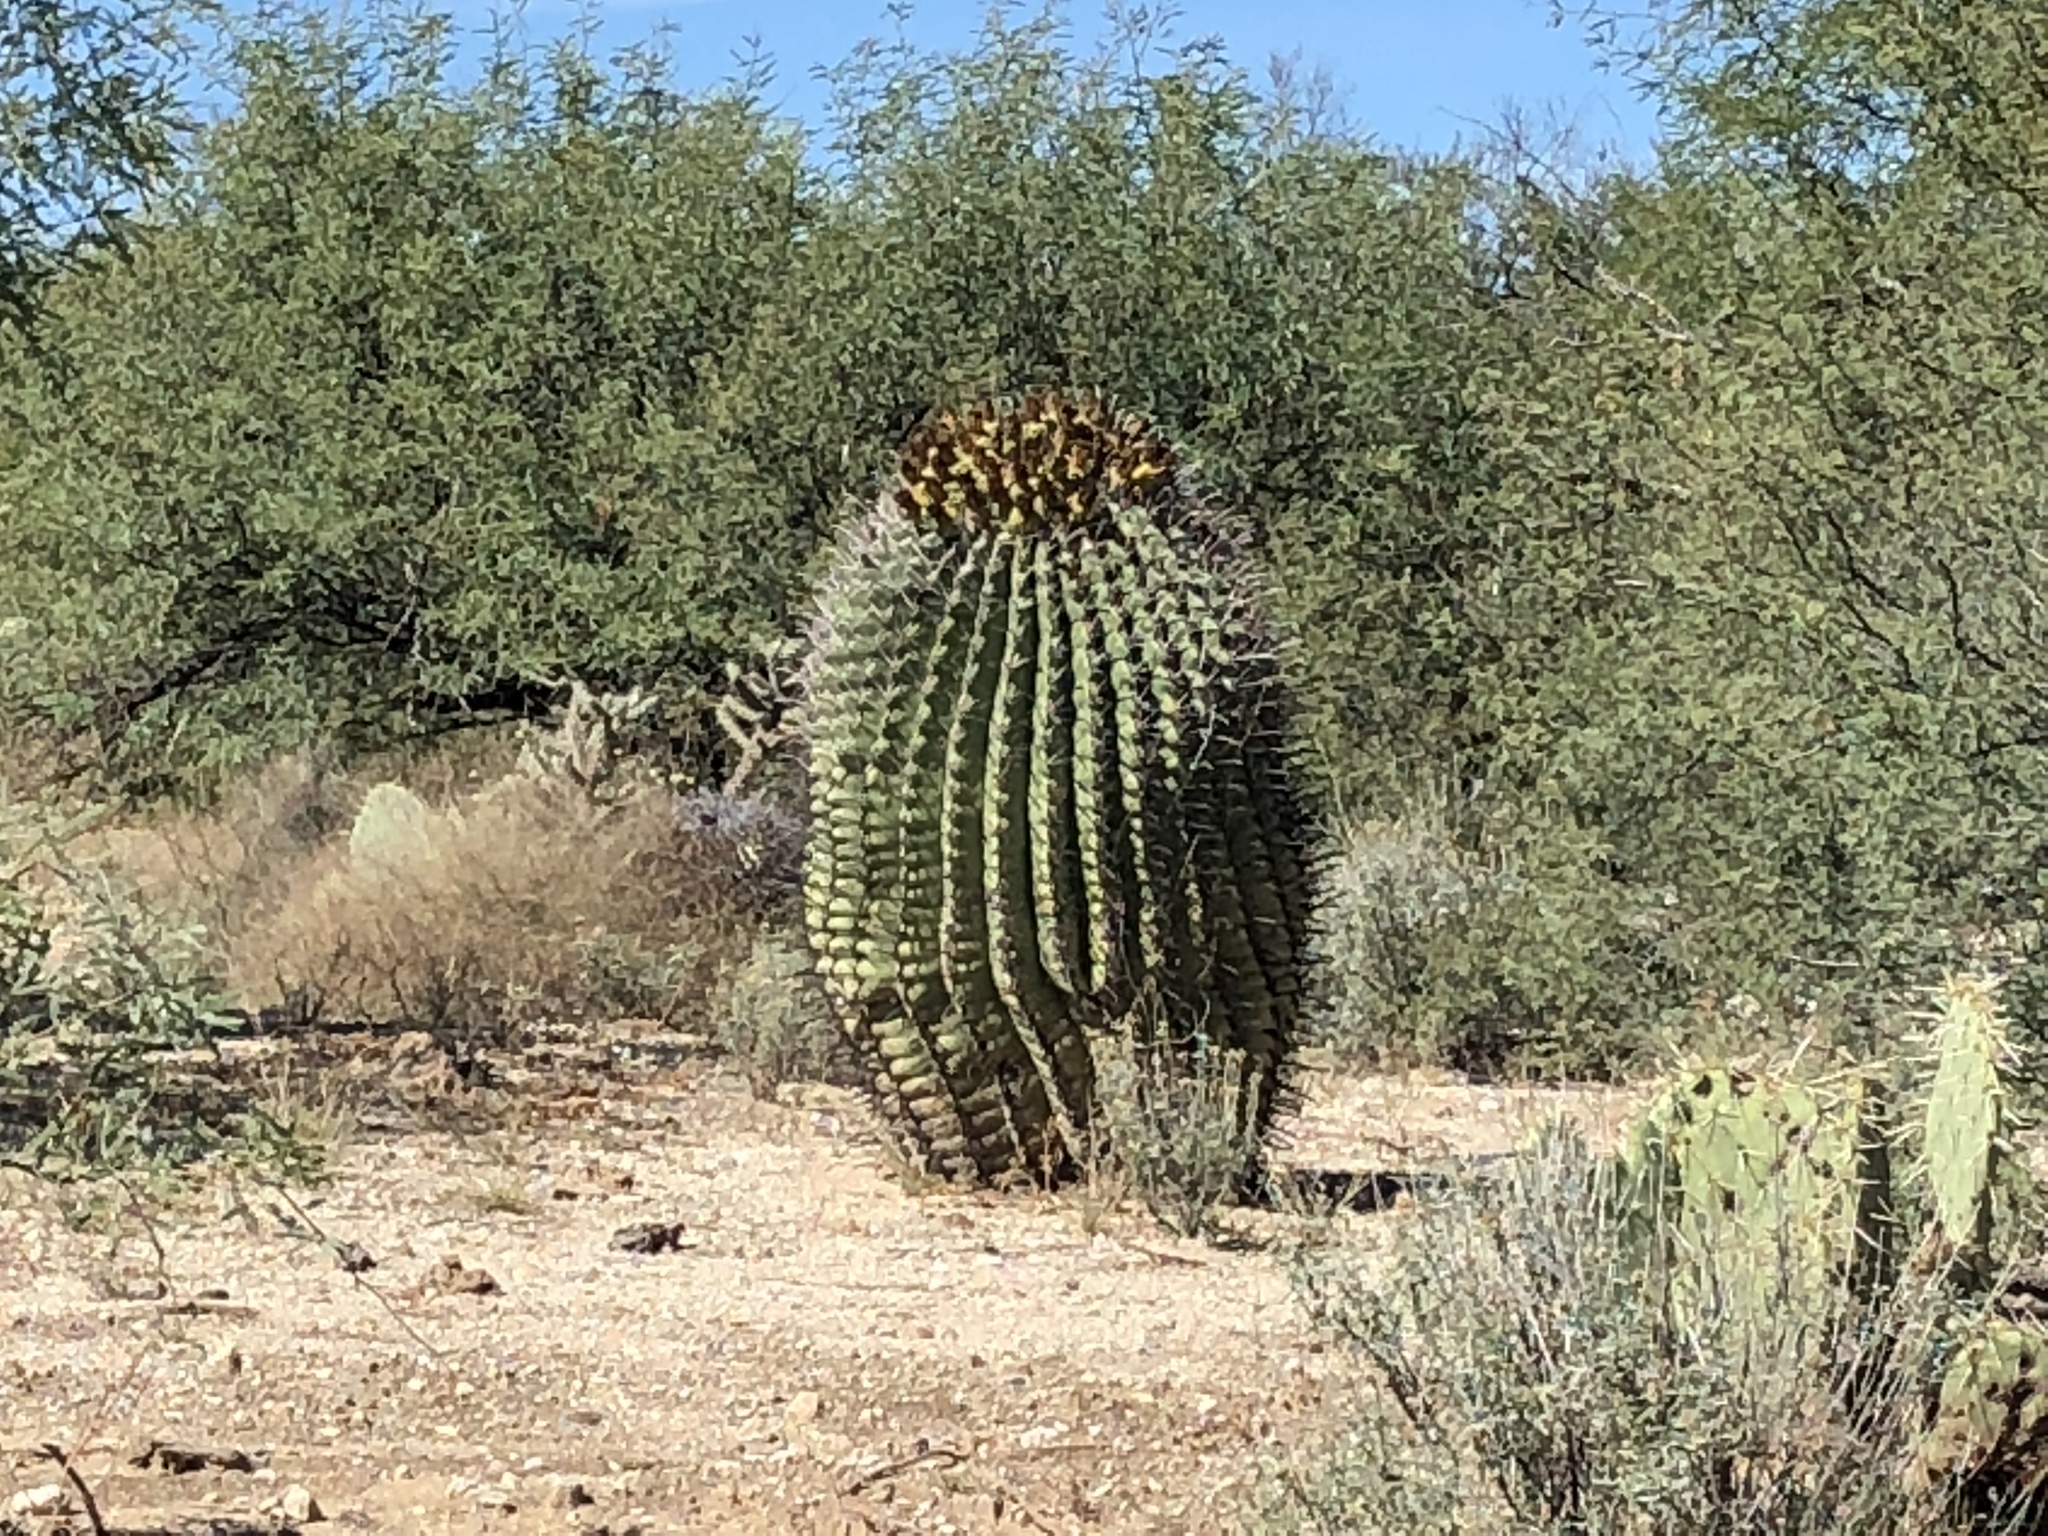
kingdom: Plantae
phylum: Tracheophyta
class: Magnoliopsida
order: Caryophyllales
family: Cactaceae
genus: Ferocactus
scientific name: Ferocactus wislizeni
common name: Candy barrel cactus
